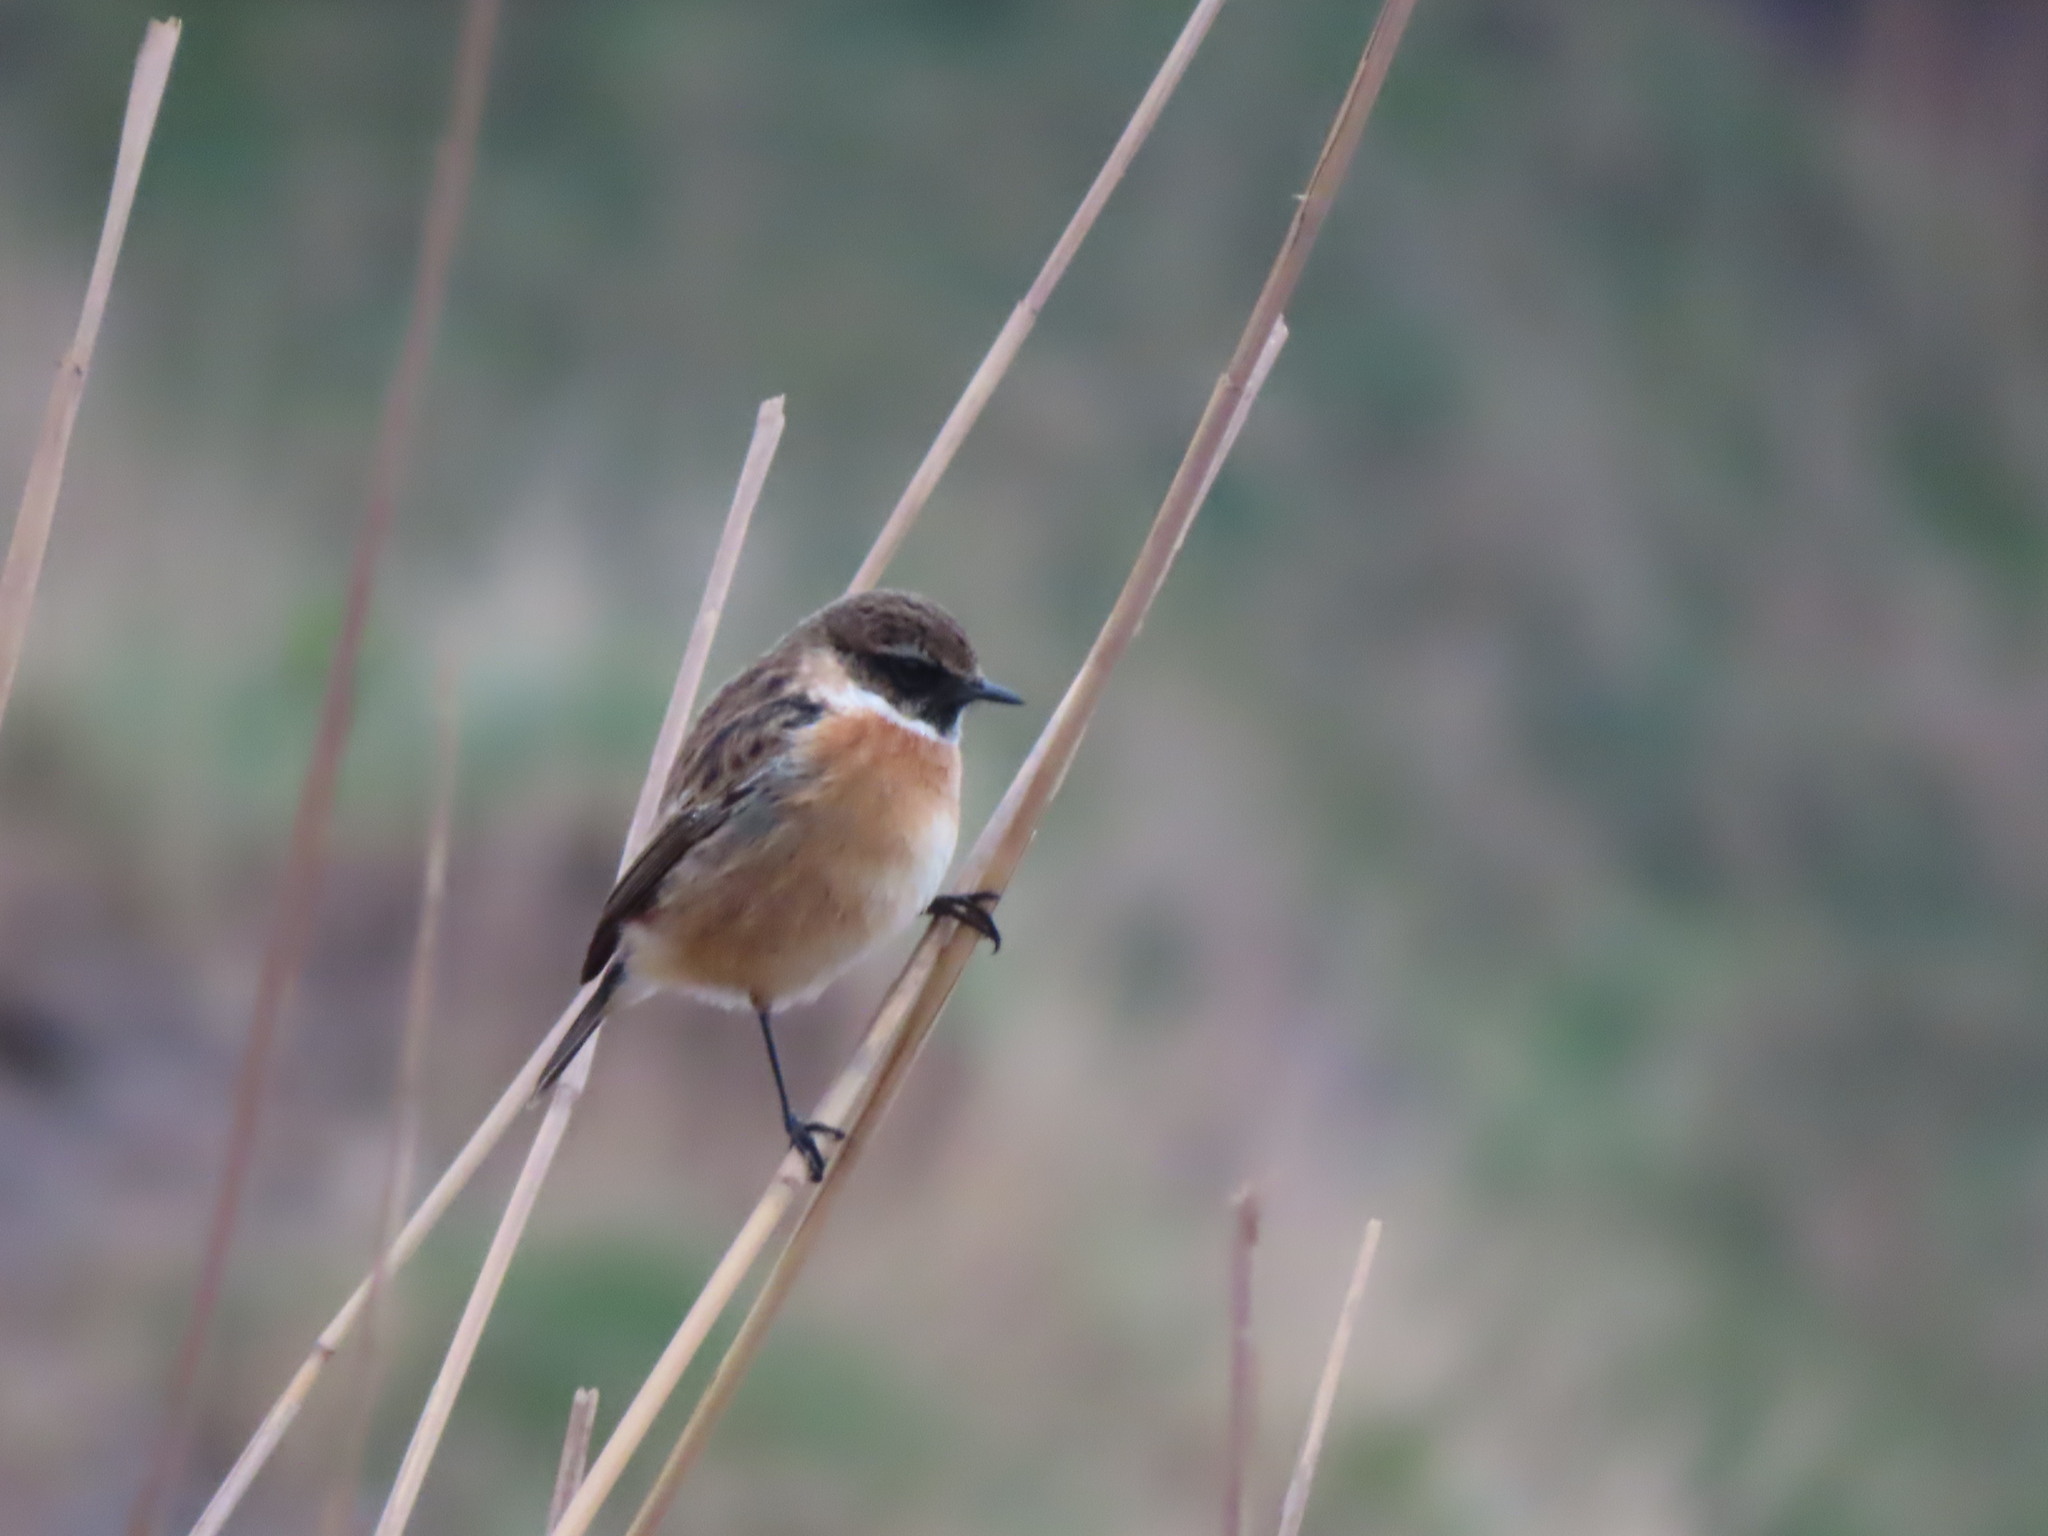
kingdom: Animalia
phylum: Chordata
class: Aves
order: Passeriformes
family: Muscicapidae
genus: Saxicola
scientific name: Saxicola rubicola
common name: European stonechat
